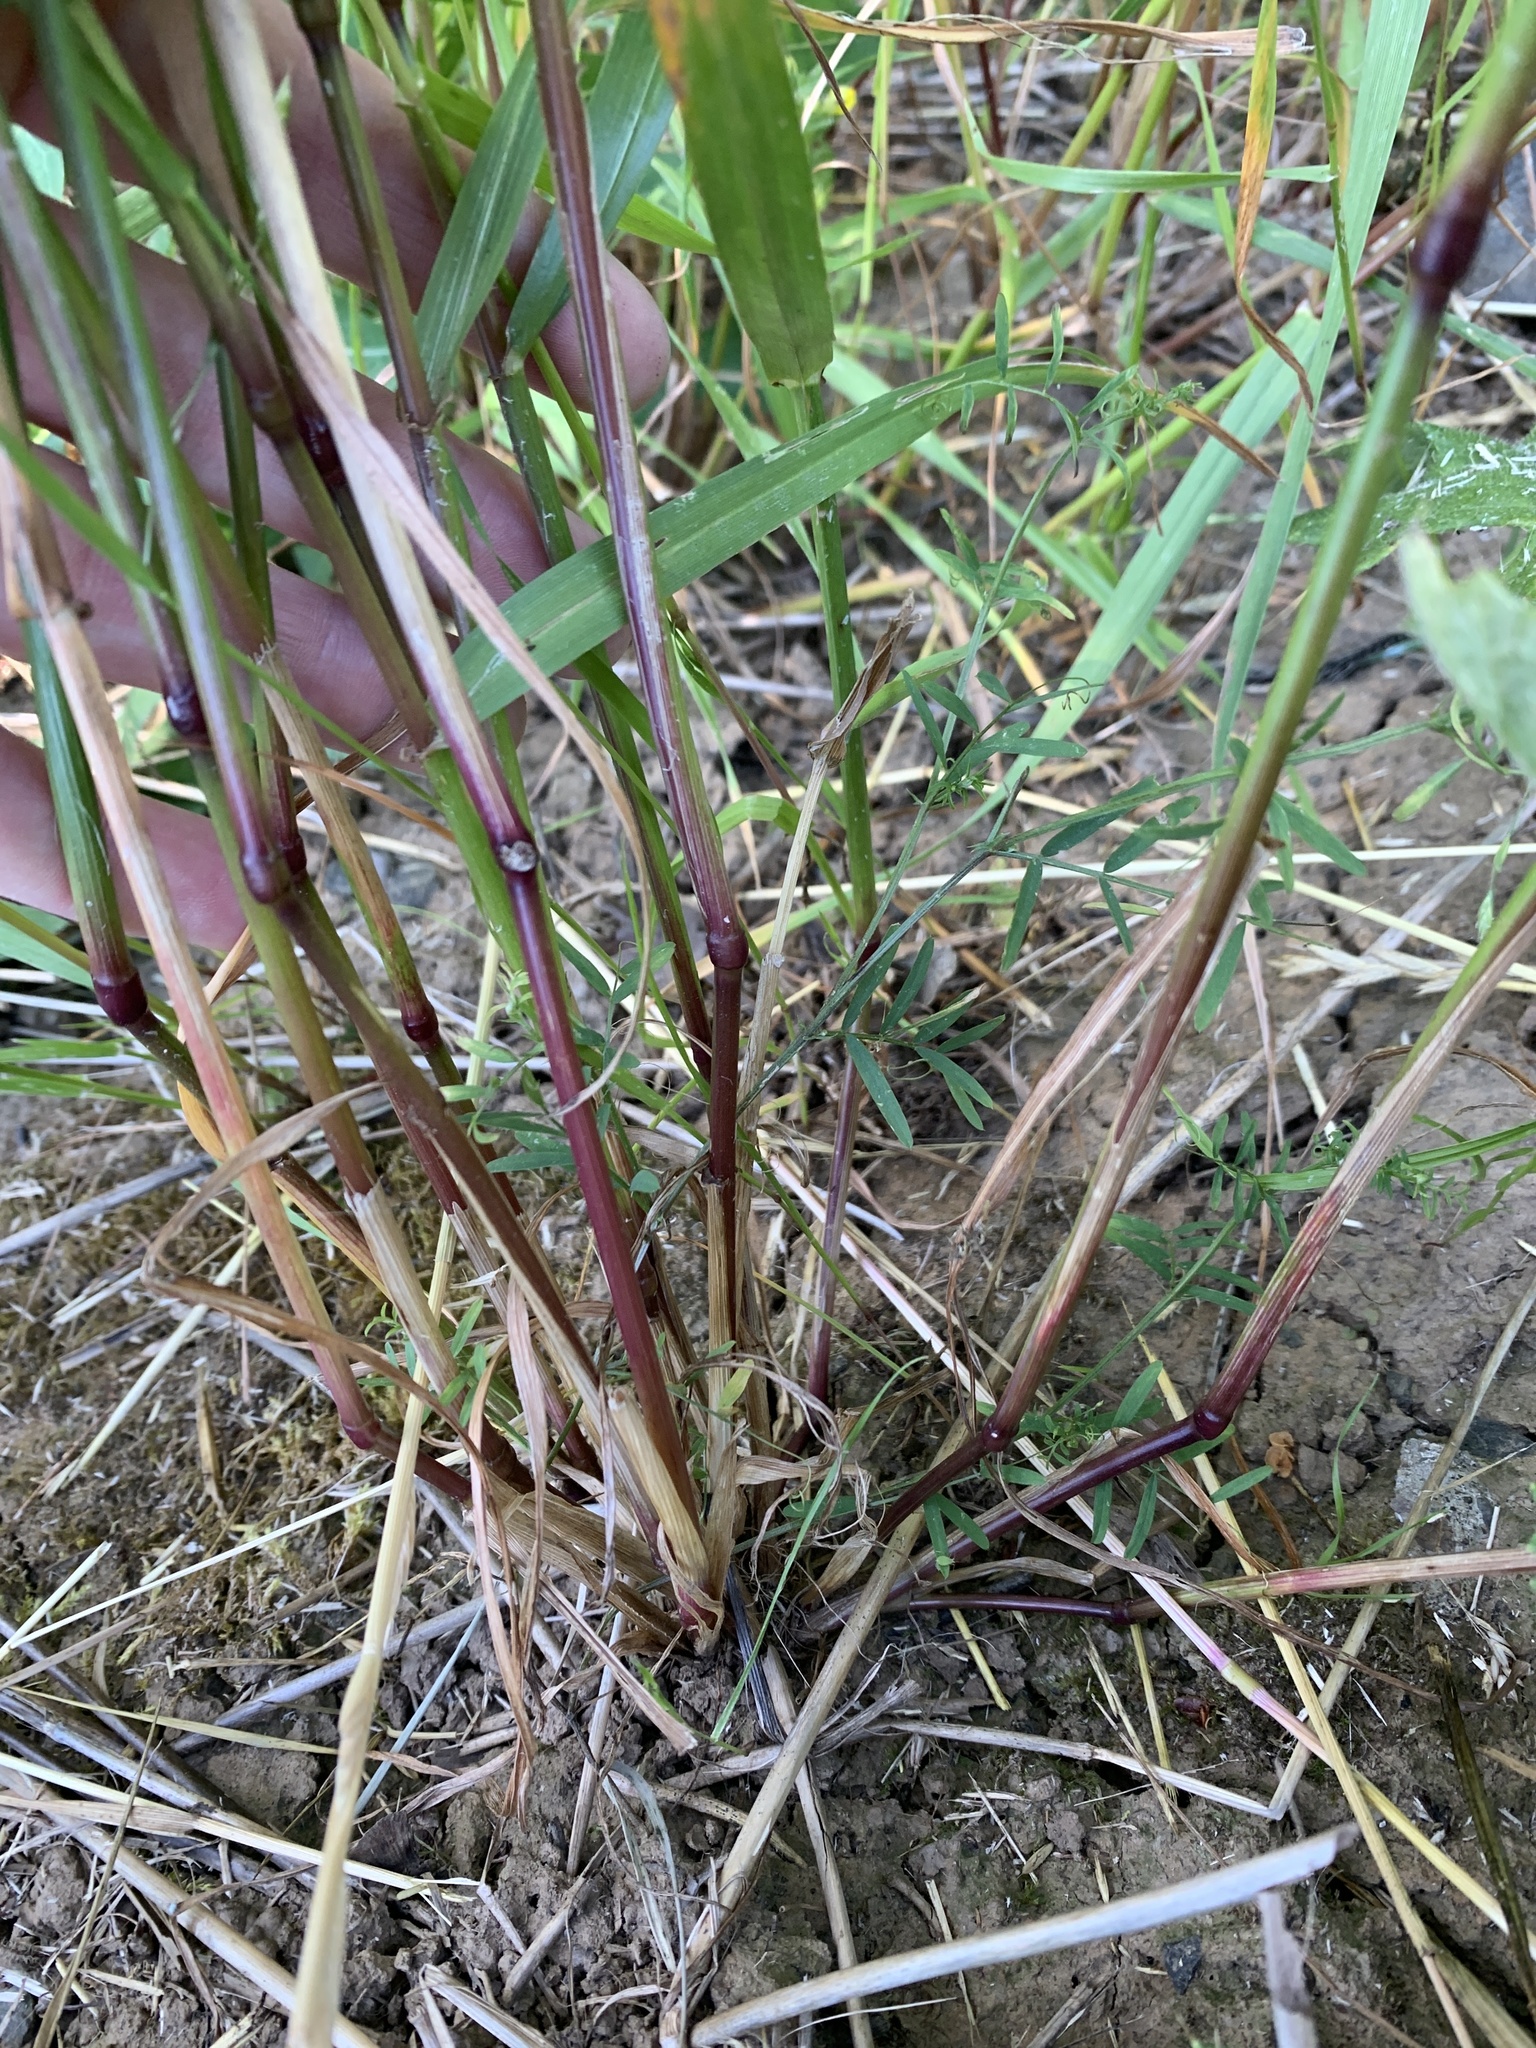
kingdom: Plantae
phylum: Tracheophyta
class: Liliopsida
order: Poales
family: Poaceae
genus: Lolium
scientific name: Lolium multiflorum
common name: Annual ryegrass
